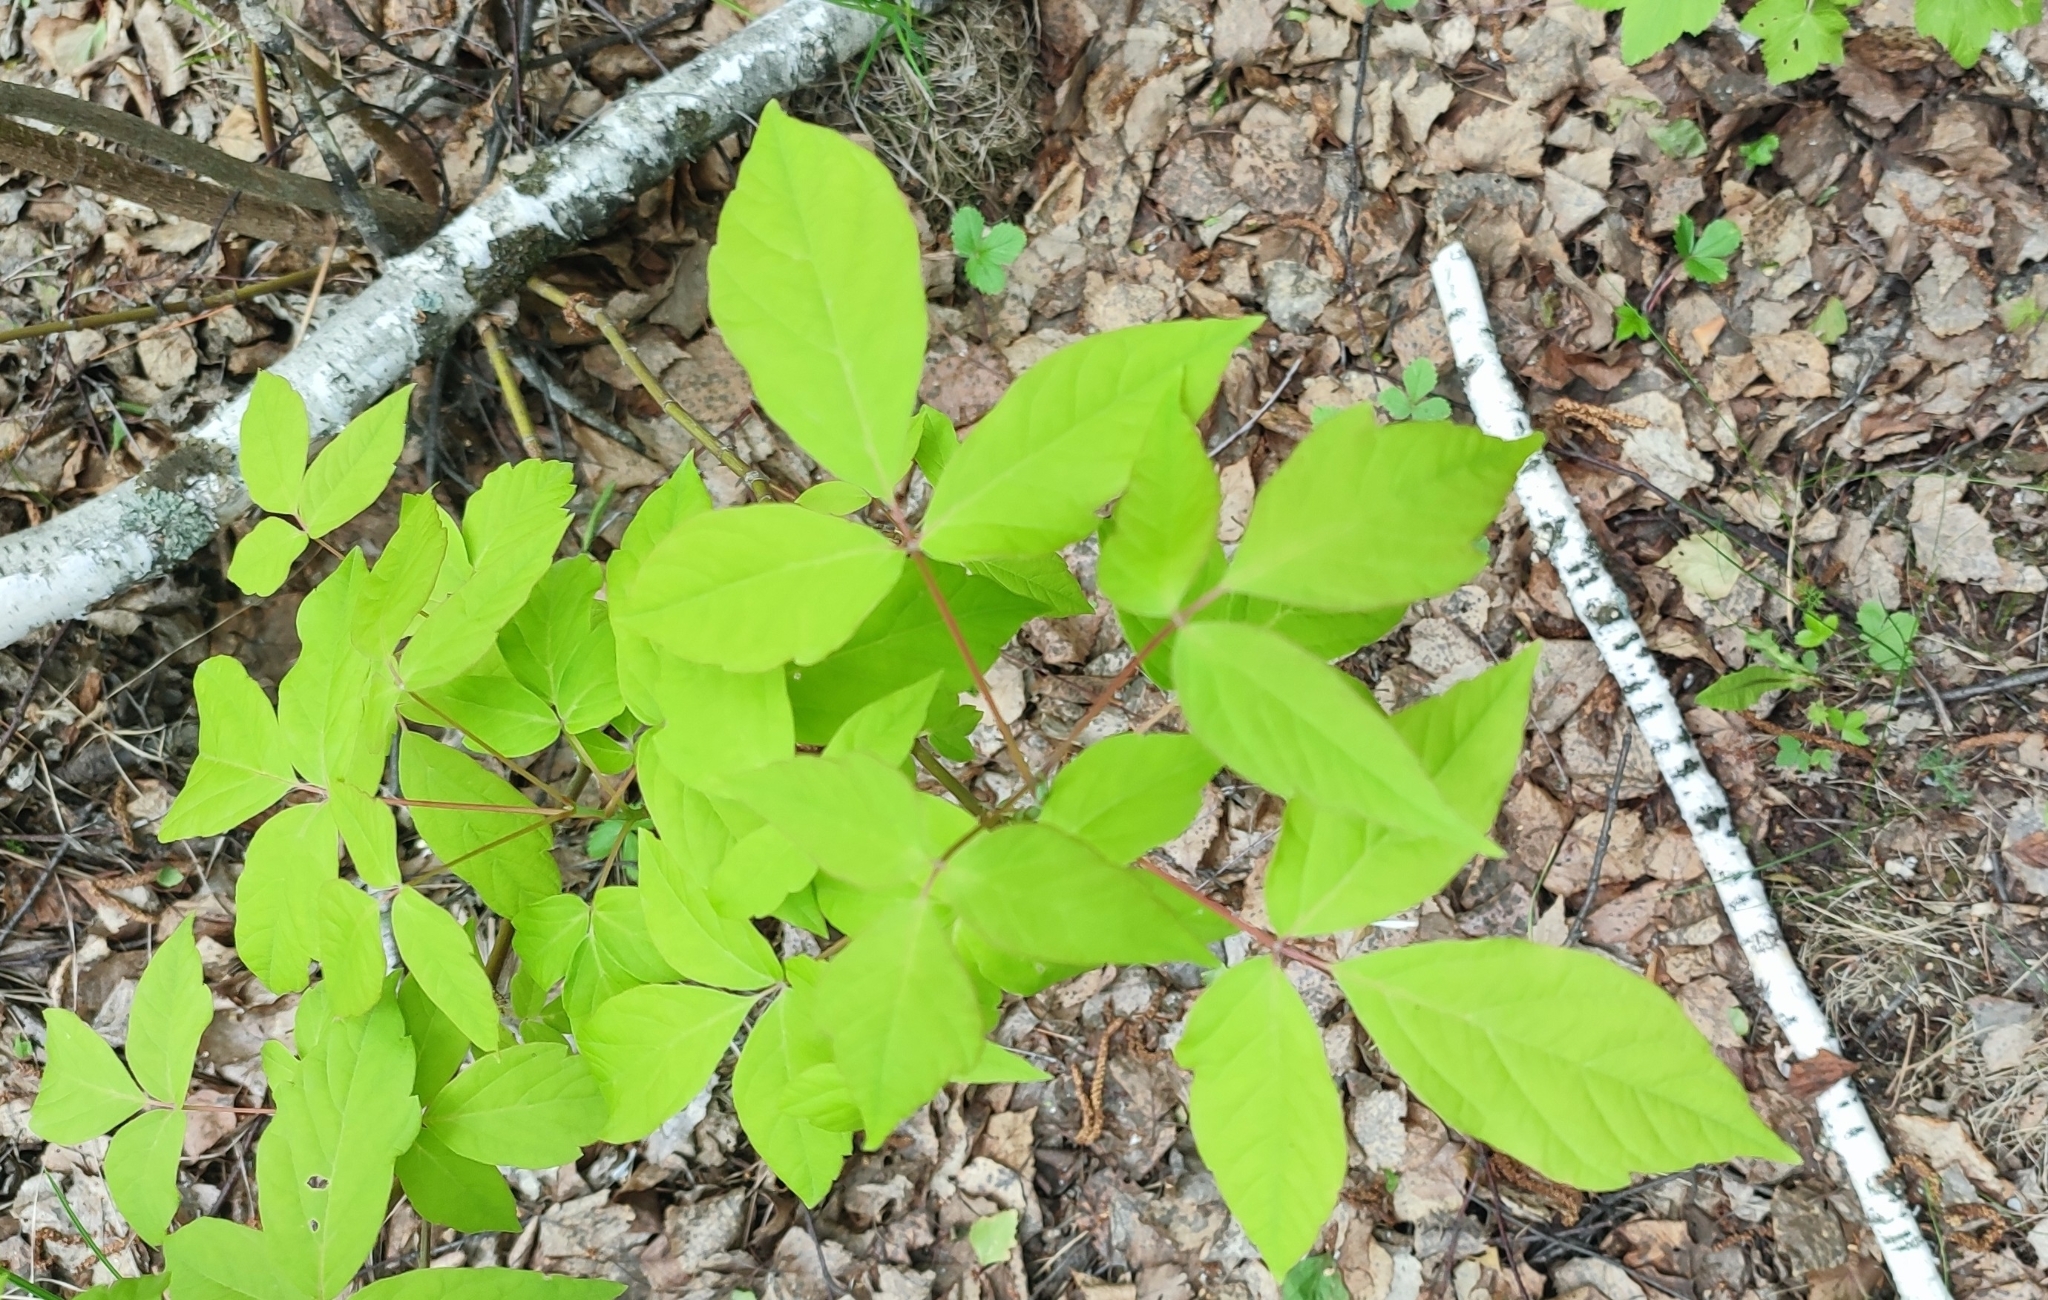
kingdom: Plantae
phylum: Tracheophyta
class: Magnoliopsida
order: Sapindales
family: Sapindaceae
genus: Acer
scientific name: Acer negundo
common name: Ashleaf maple
